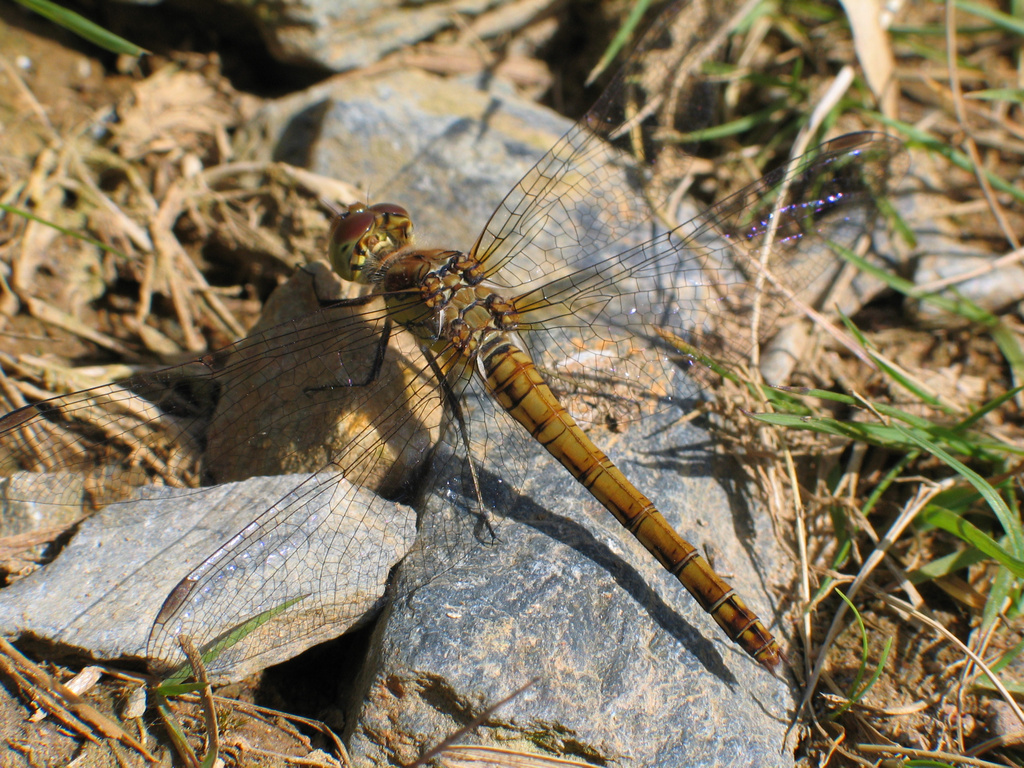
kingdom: Animalia
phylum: Arthropoda
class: Insecta
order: Odonata
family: Libellulidae
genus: Sympetrum
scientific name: Sympetrum striolatum
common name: Common darter
